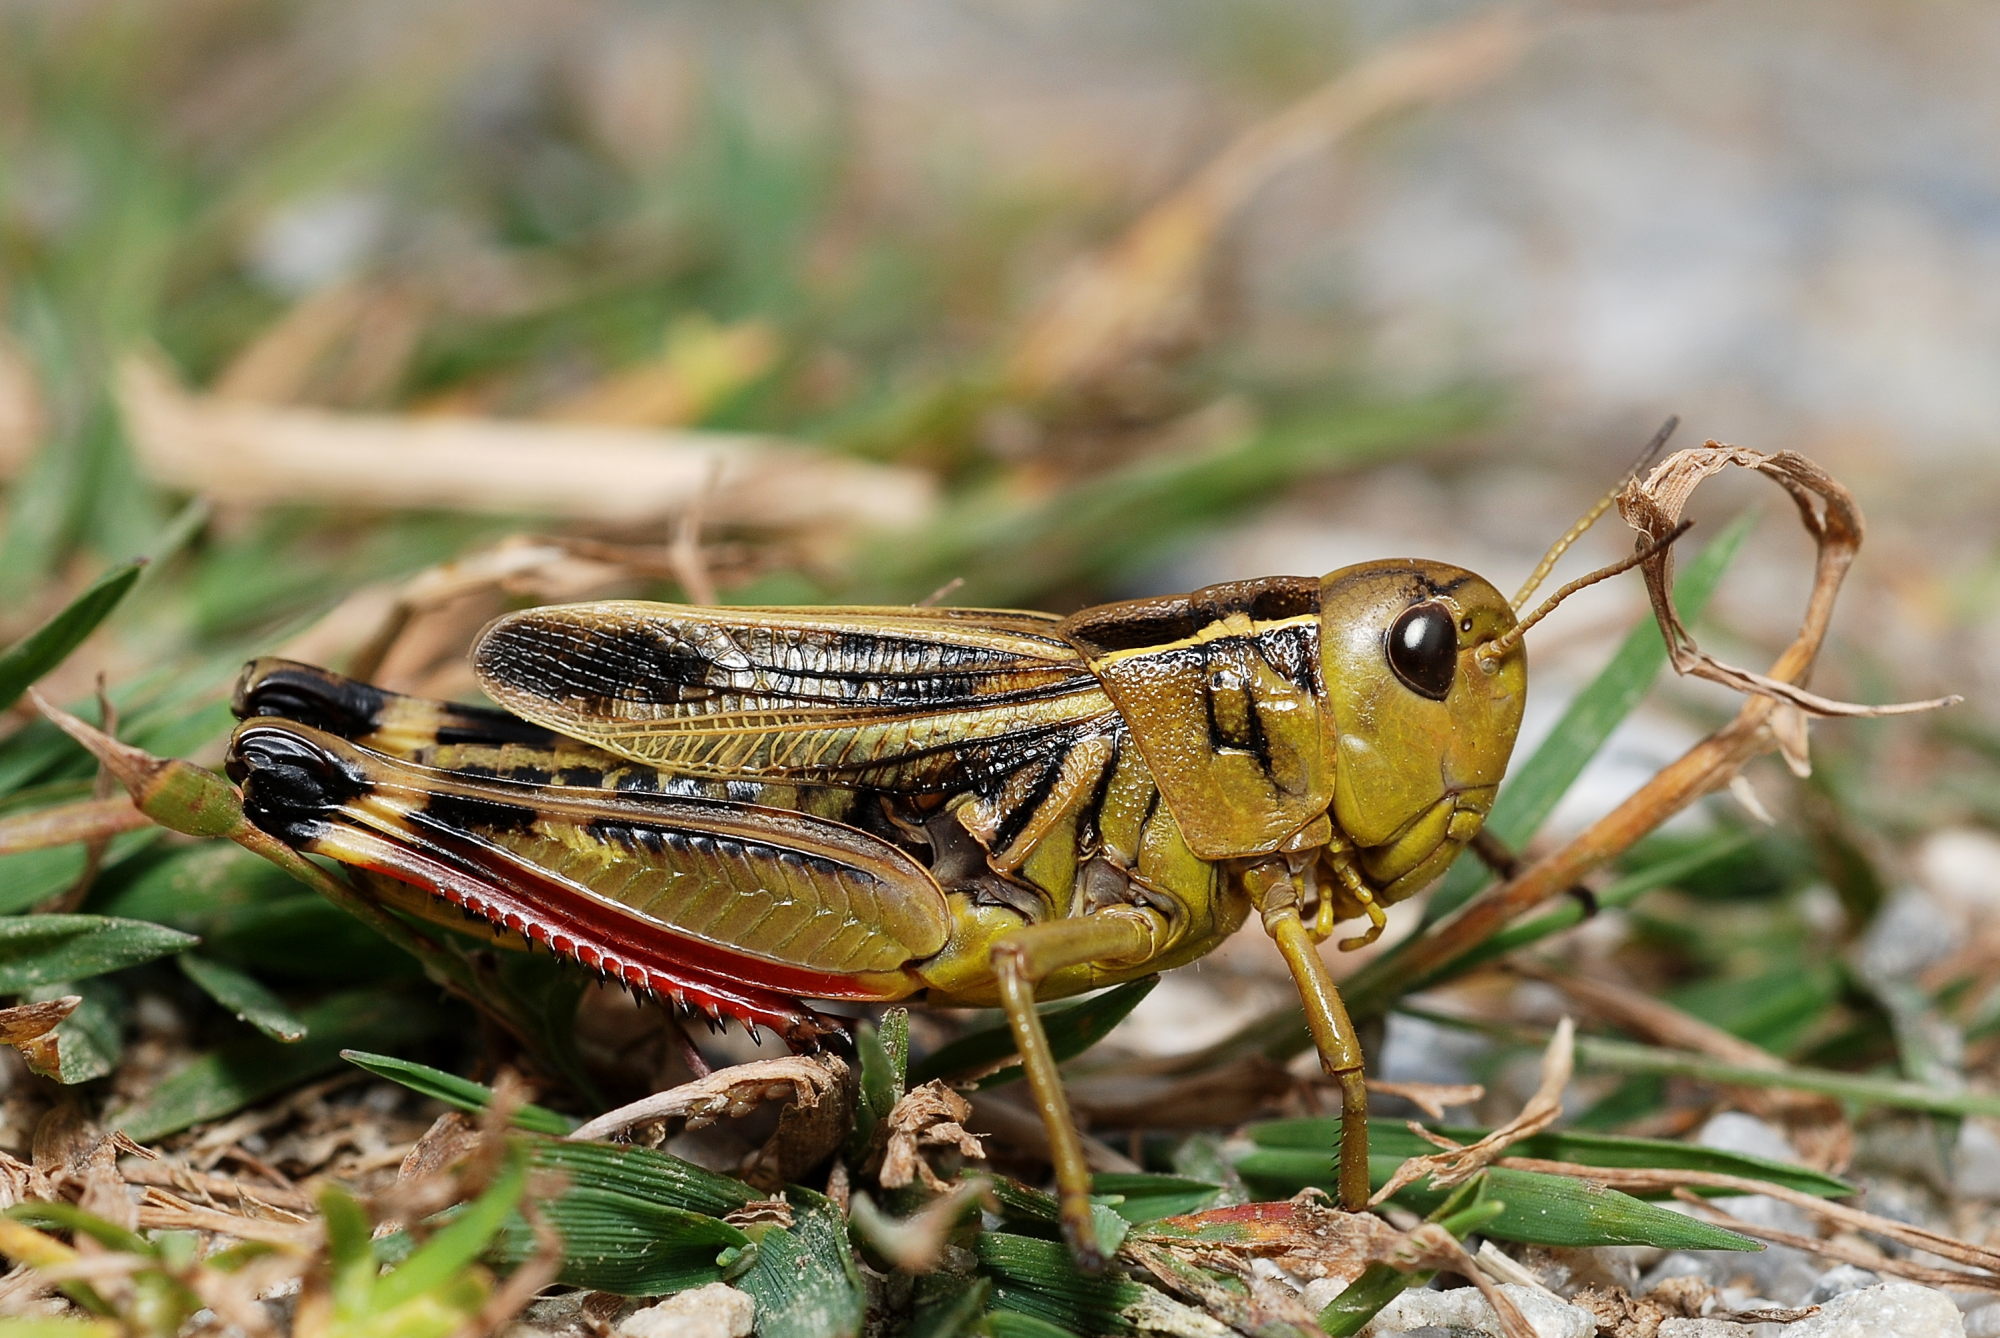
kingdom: Animalia
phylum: Arthropoda
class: Insecta
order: Orthoptera
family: Acrididae
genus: Arcyptera
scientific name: Arcyptera fusca
